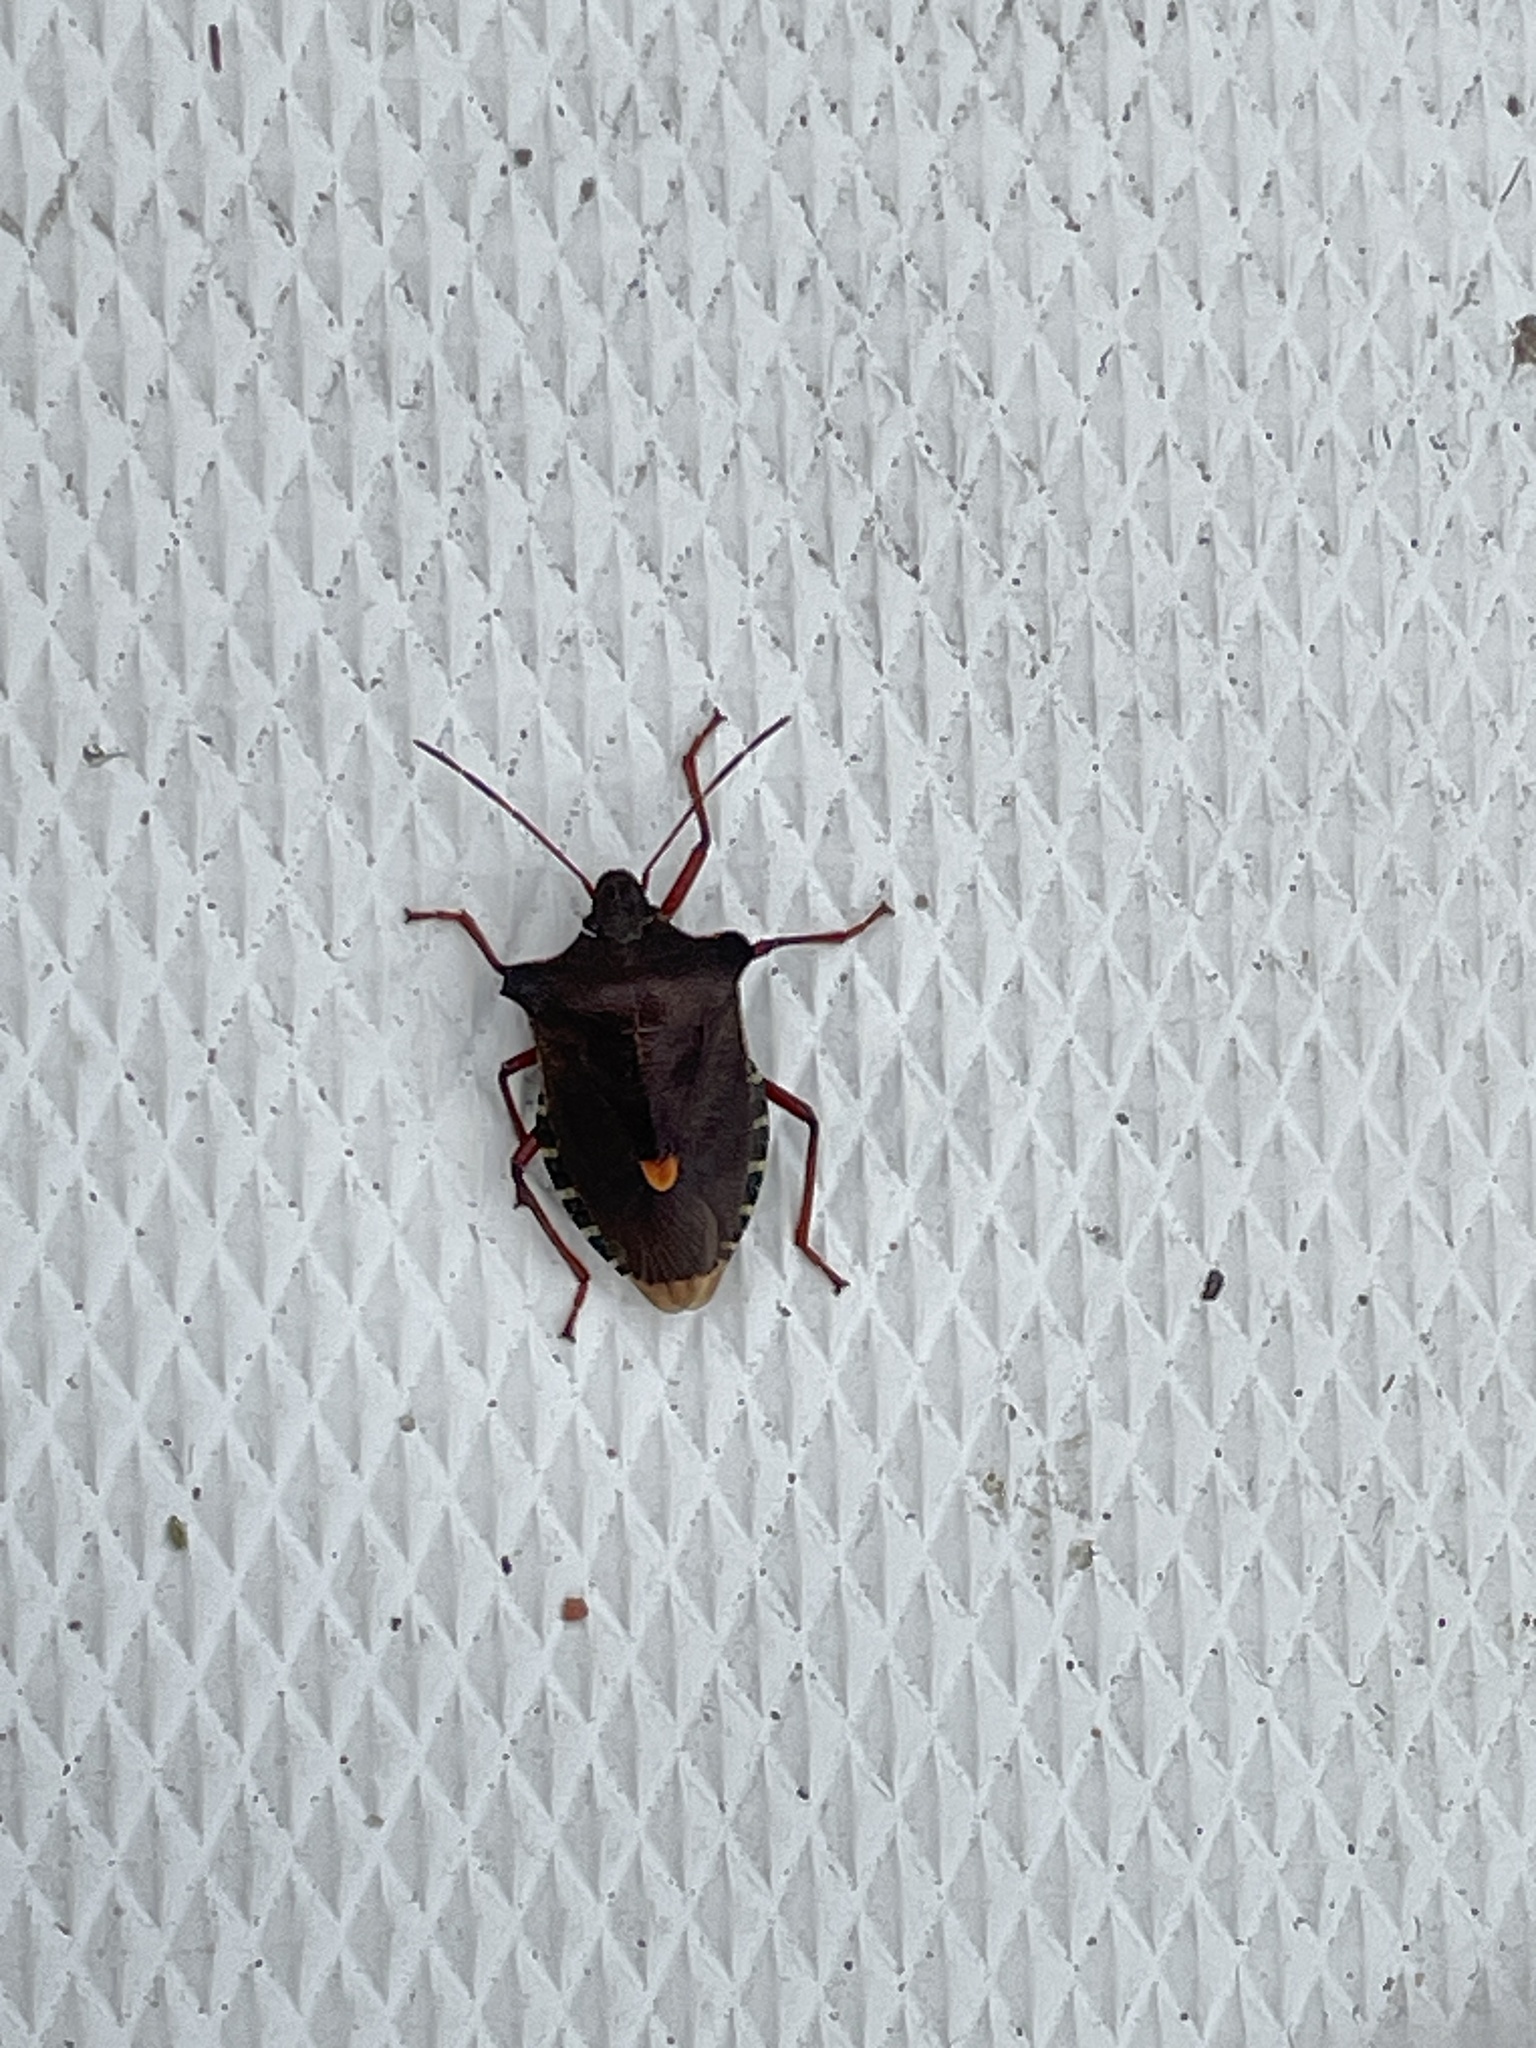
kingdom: Animalia
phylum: Arthropoda
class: Insecta
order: Hemiptera
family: Pentatomidae
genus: Pentatoma
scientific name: Pentatoma rufipes
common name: Forest bug
